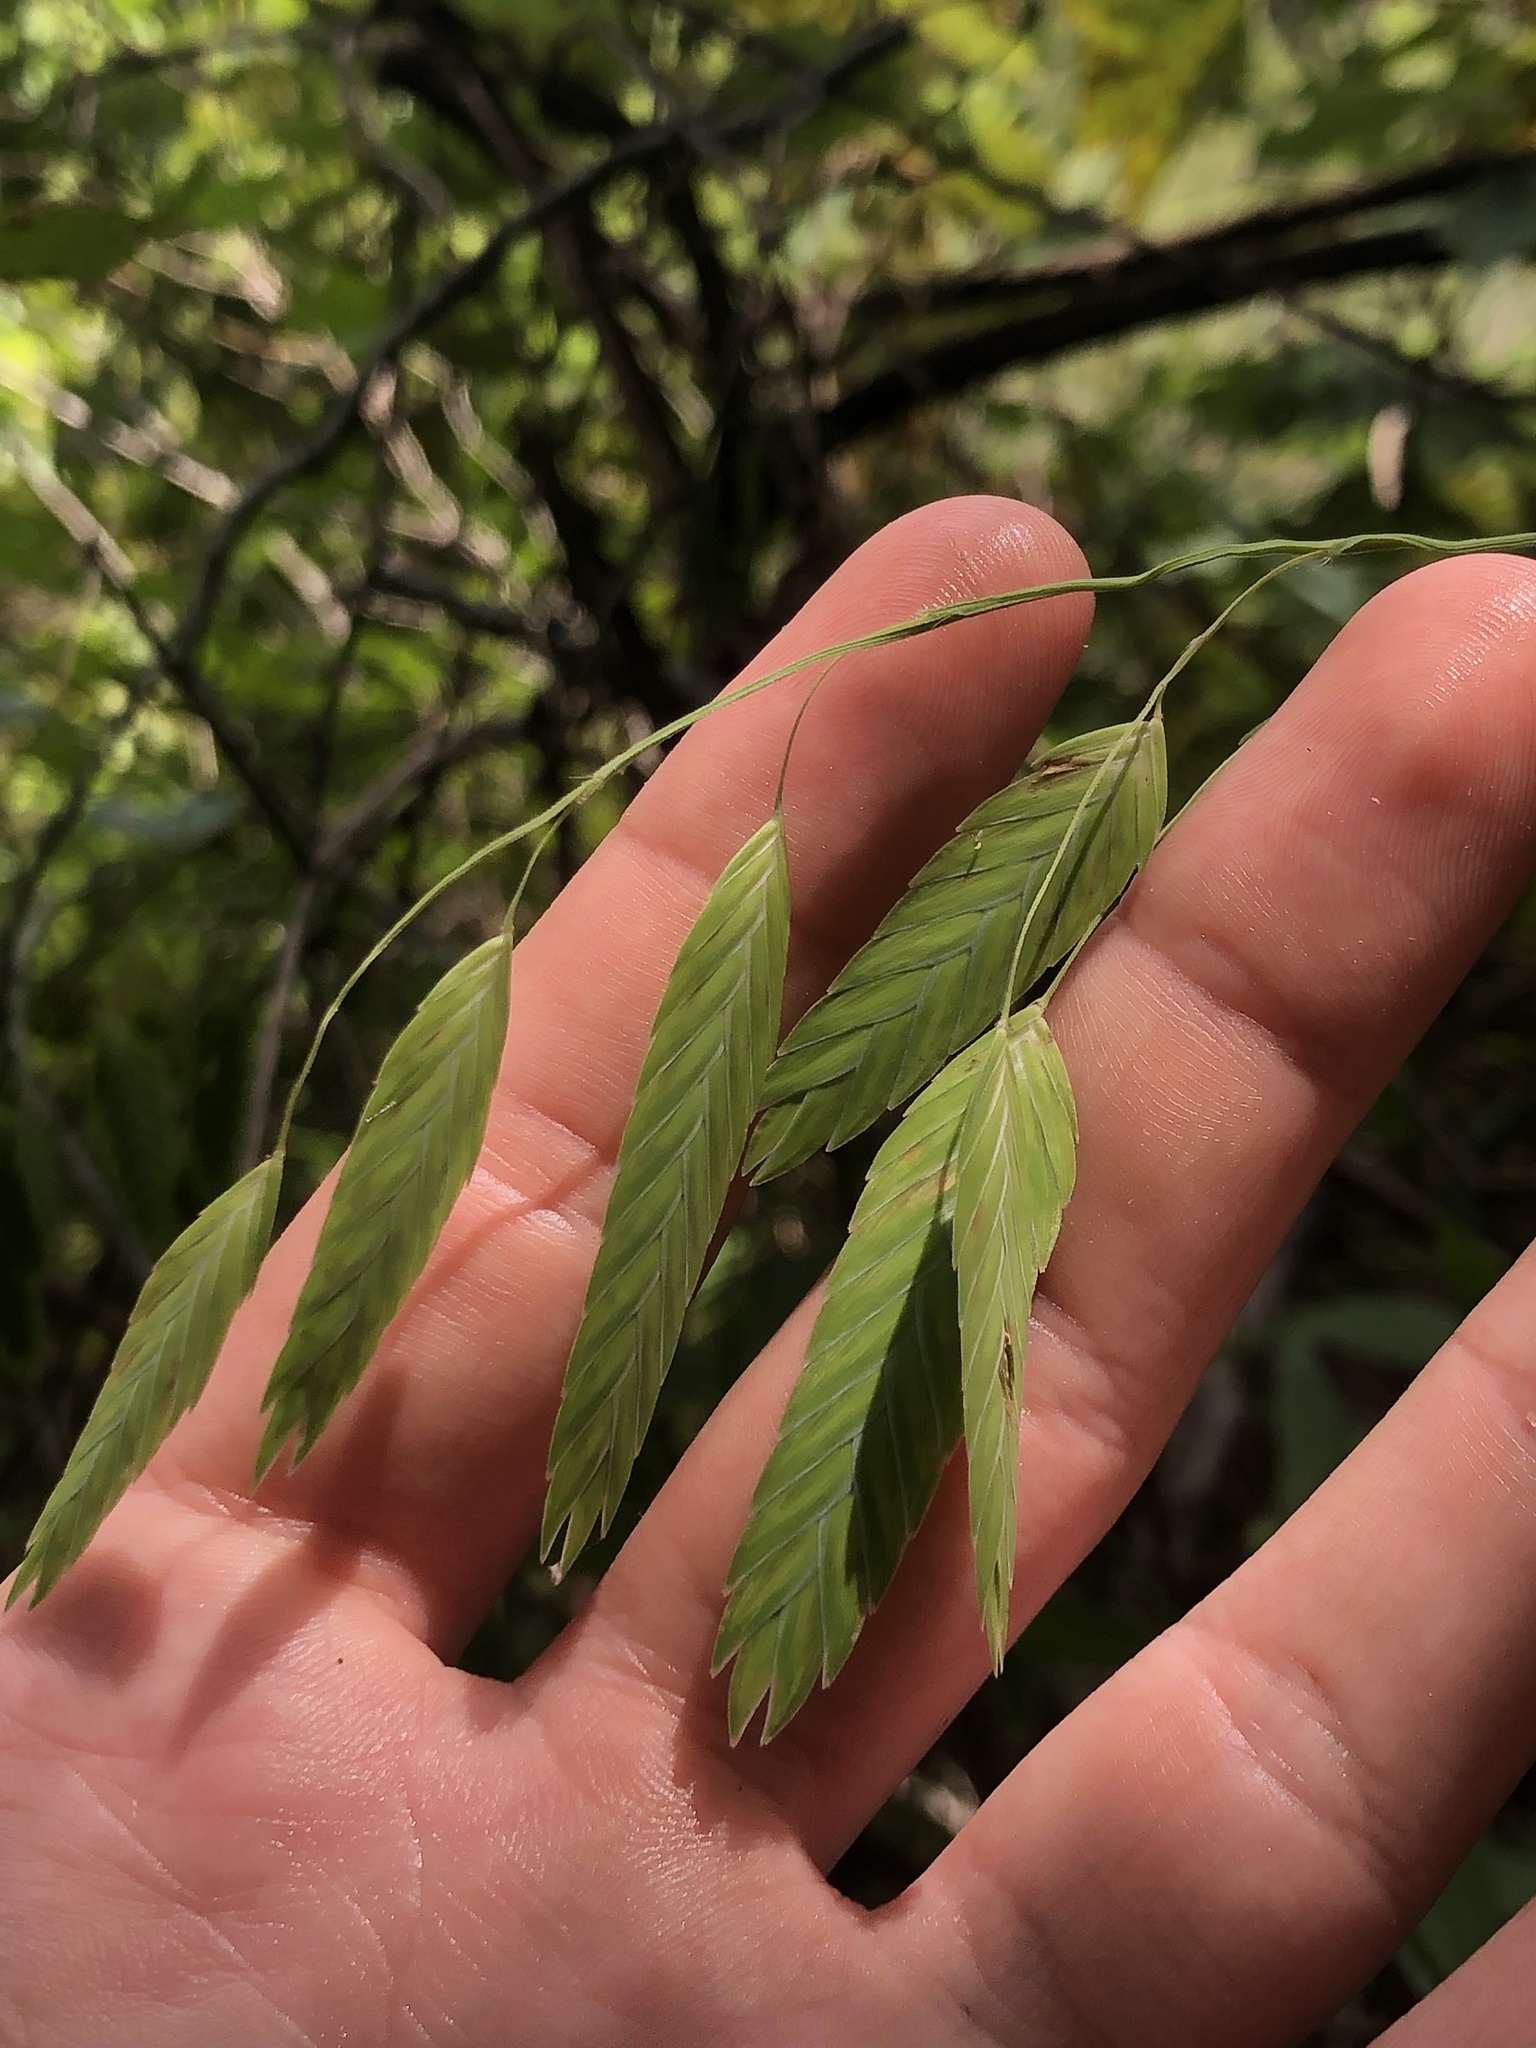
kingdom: Plantae
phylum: Tracheophyta
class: Liliopsida
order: Poales
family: Poaceae
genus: Chasmanthium
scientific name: Chasmanthium latifolium
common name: Broad-leaved chasmanthium
